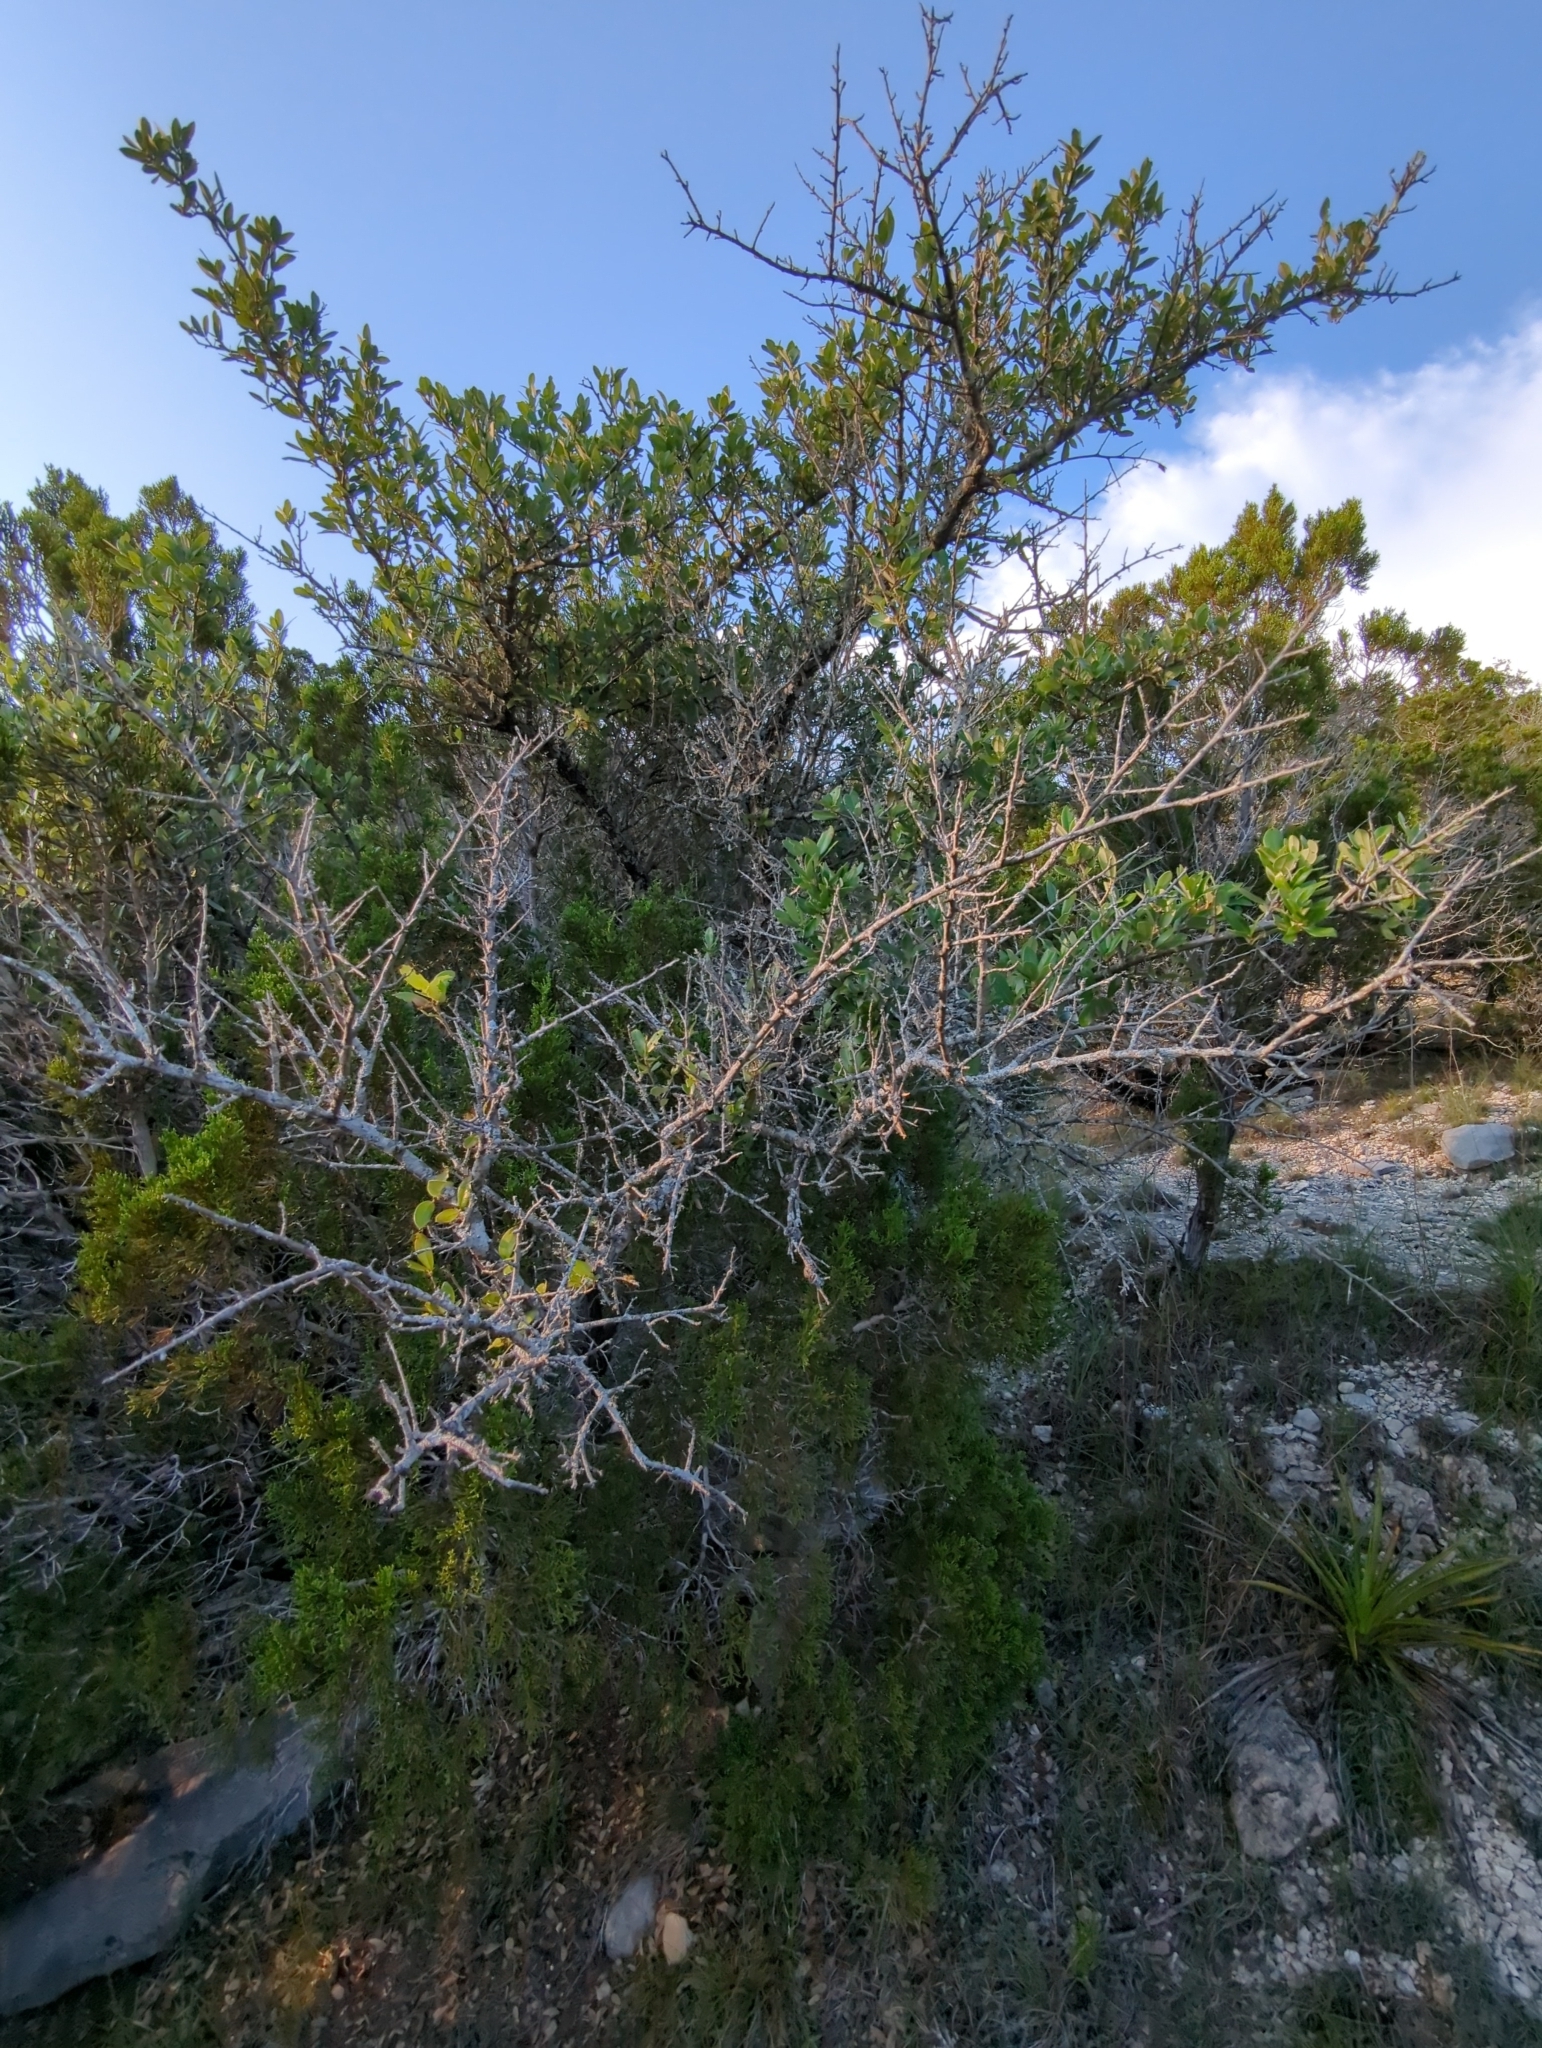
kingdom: Plantae
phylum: Tracheophyta
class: Magnoliopsida
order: Fagales
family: Fagaceae
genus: Quercus
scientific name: Quercus fusiformis
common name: Texas live oak
